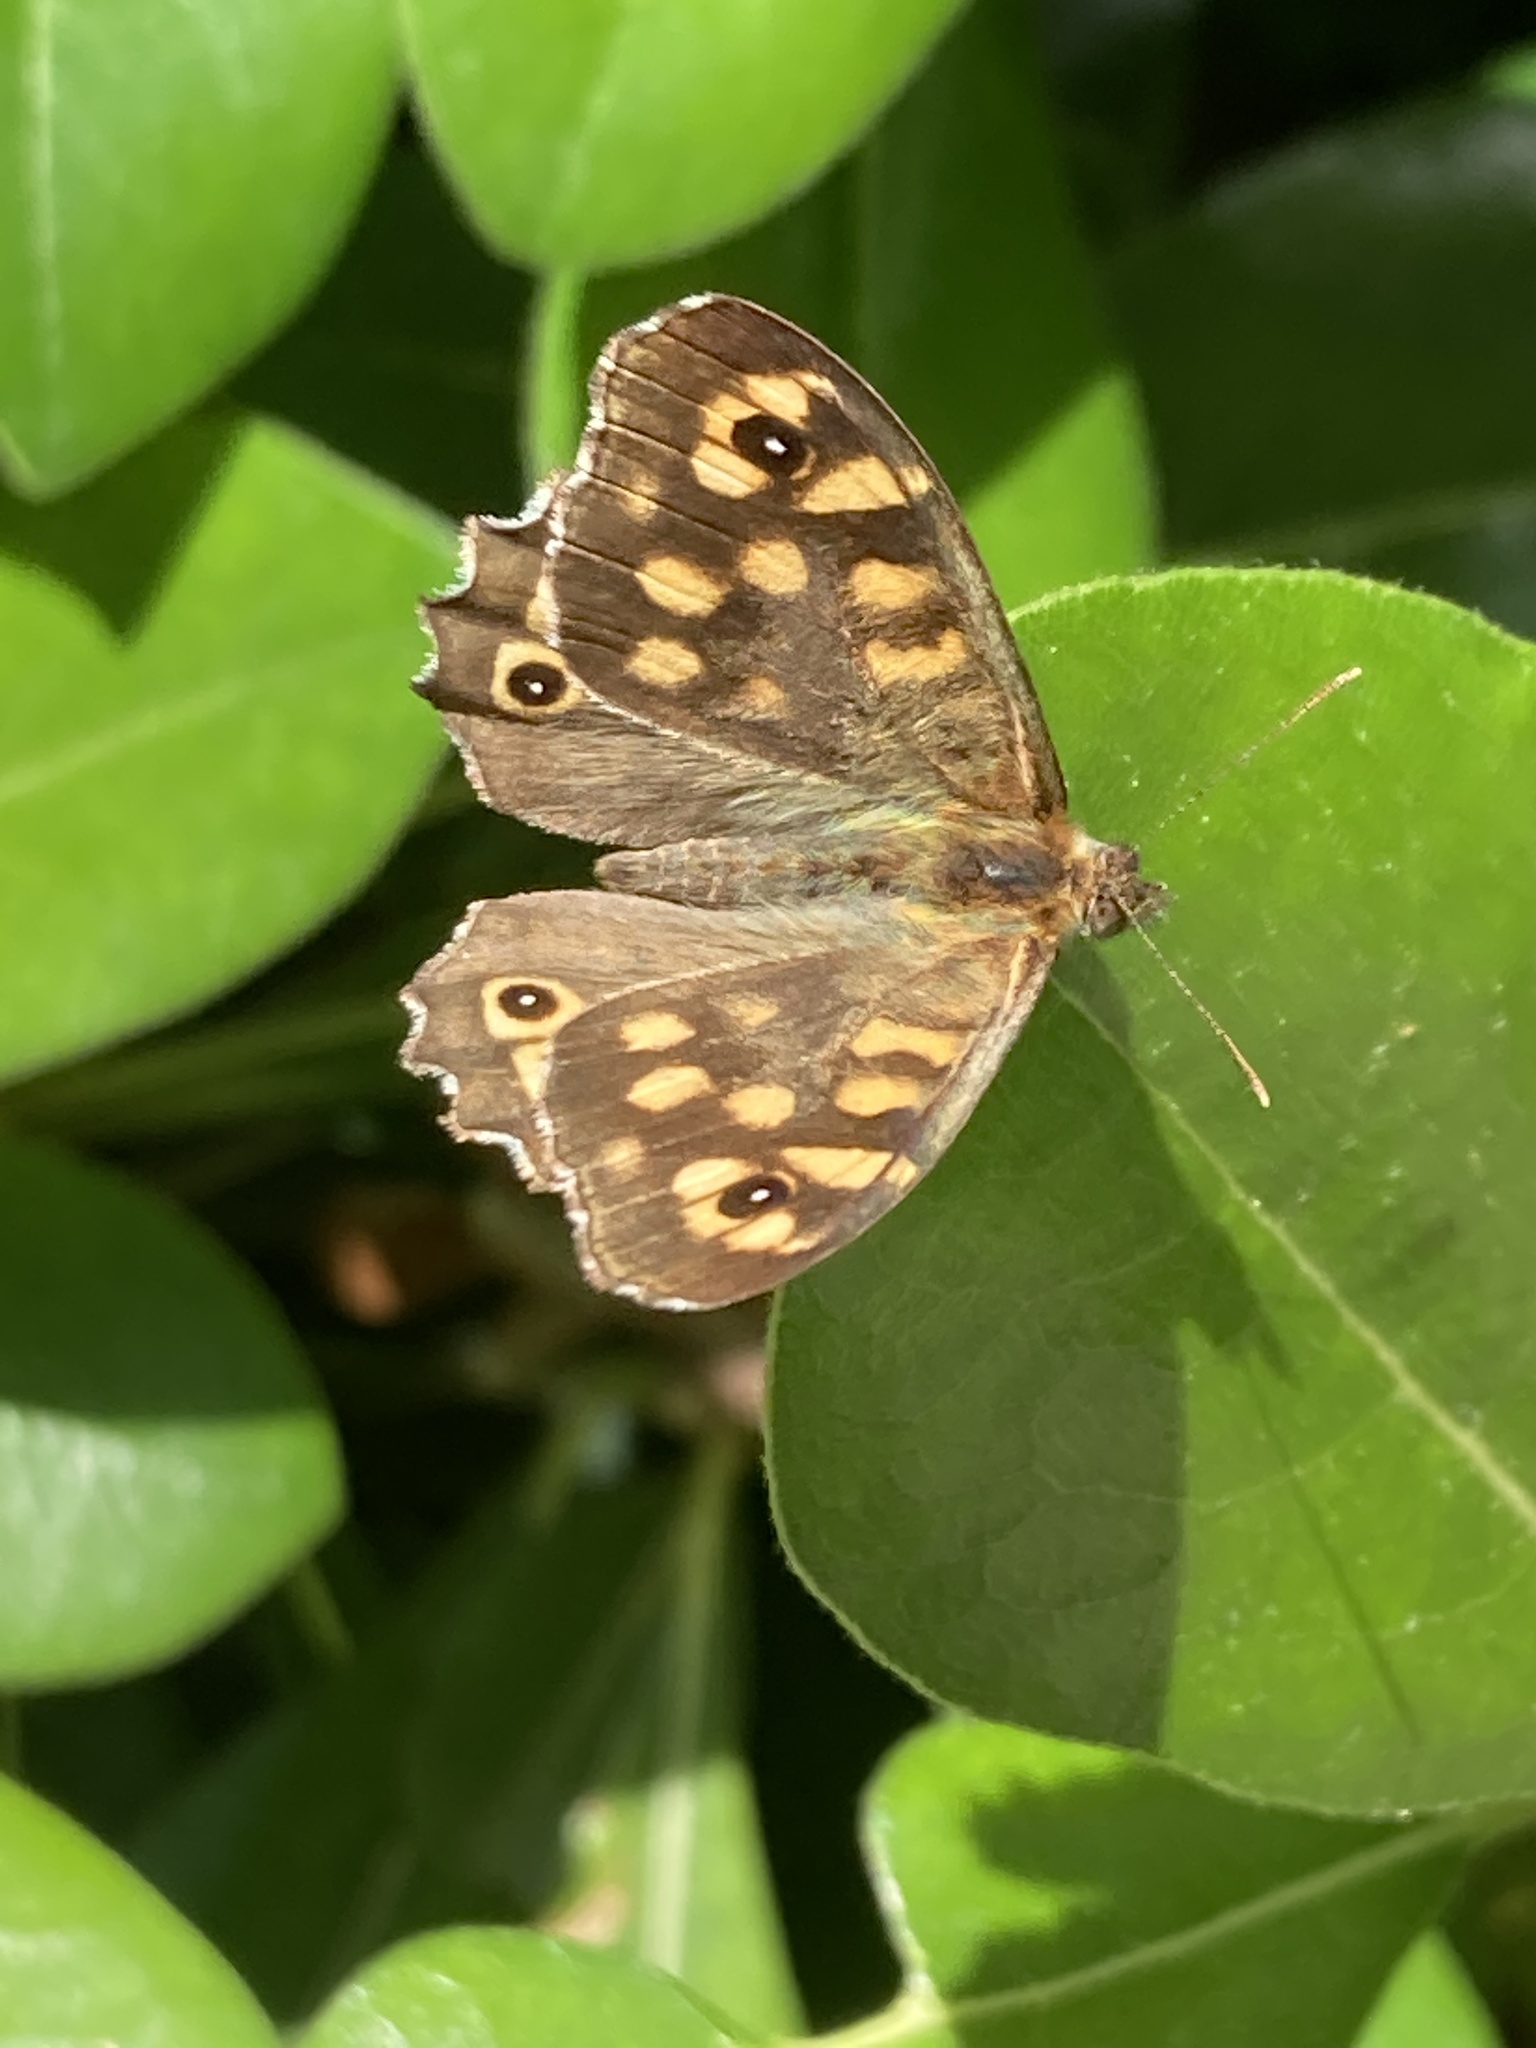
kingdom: Animalia
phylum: Arthropoda
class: Insecta
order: Lepidoptera
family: Nymphalidae
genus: Pararge
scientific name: Pararge aegeria
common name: Speckled wood
